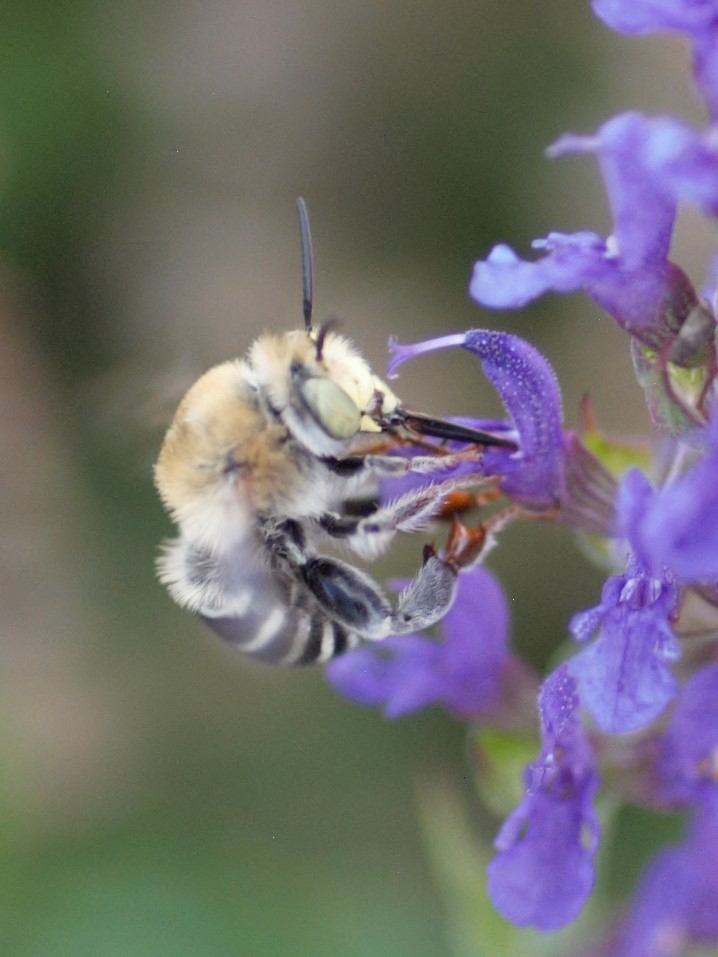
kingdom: Animalia
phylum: Arthropoda
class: Insecta
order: Hymenoptera
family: Apidae
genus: Anthophora
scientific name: Anthophora californica
